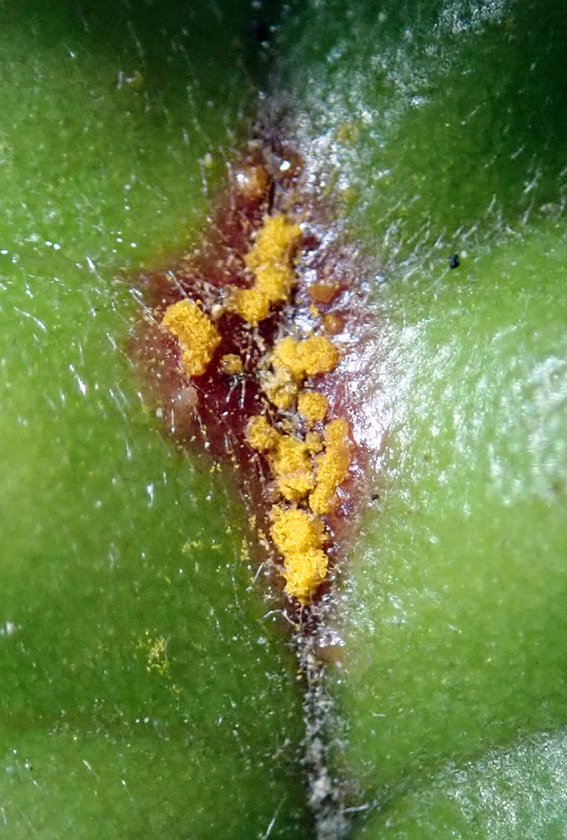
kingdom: Fungi
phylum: Basidiomycota
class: Pucciniomycetes
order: Pucciniales
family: Sphaerophragmiaceae
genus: Austropuccinia
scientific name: Austropuccinia psidii
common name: Myrtle rust
